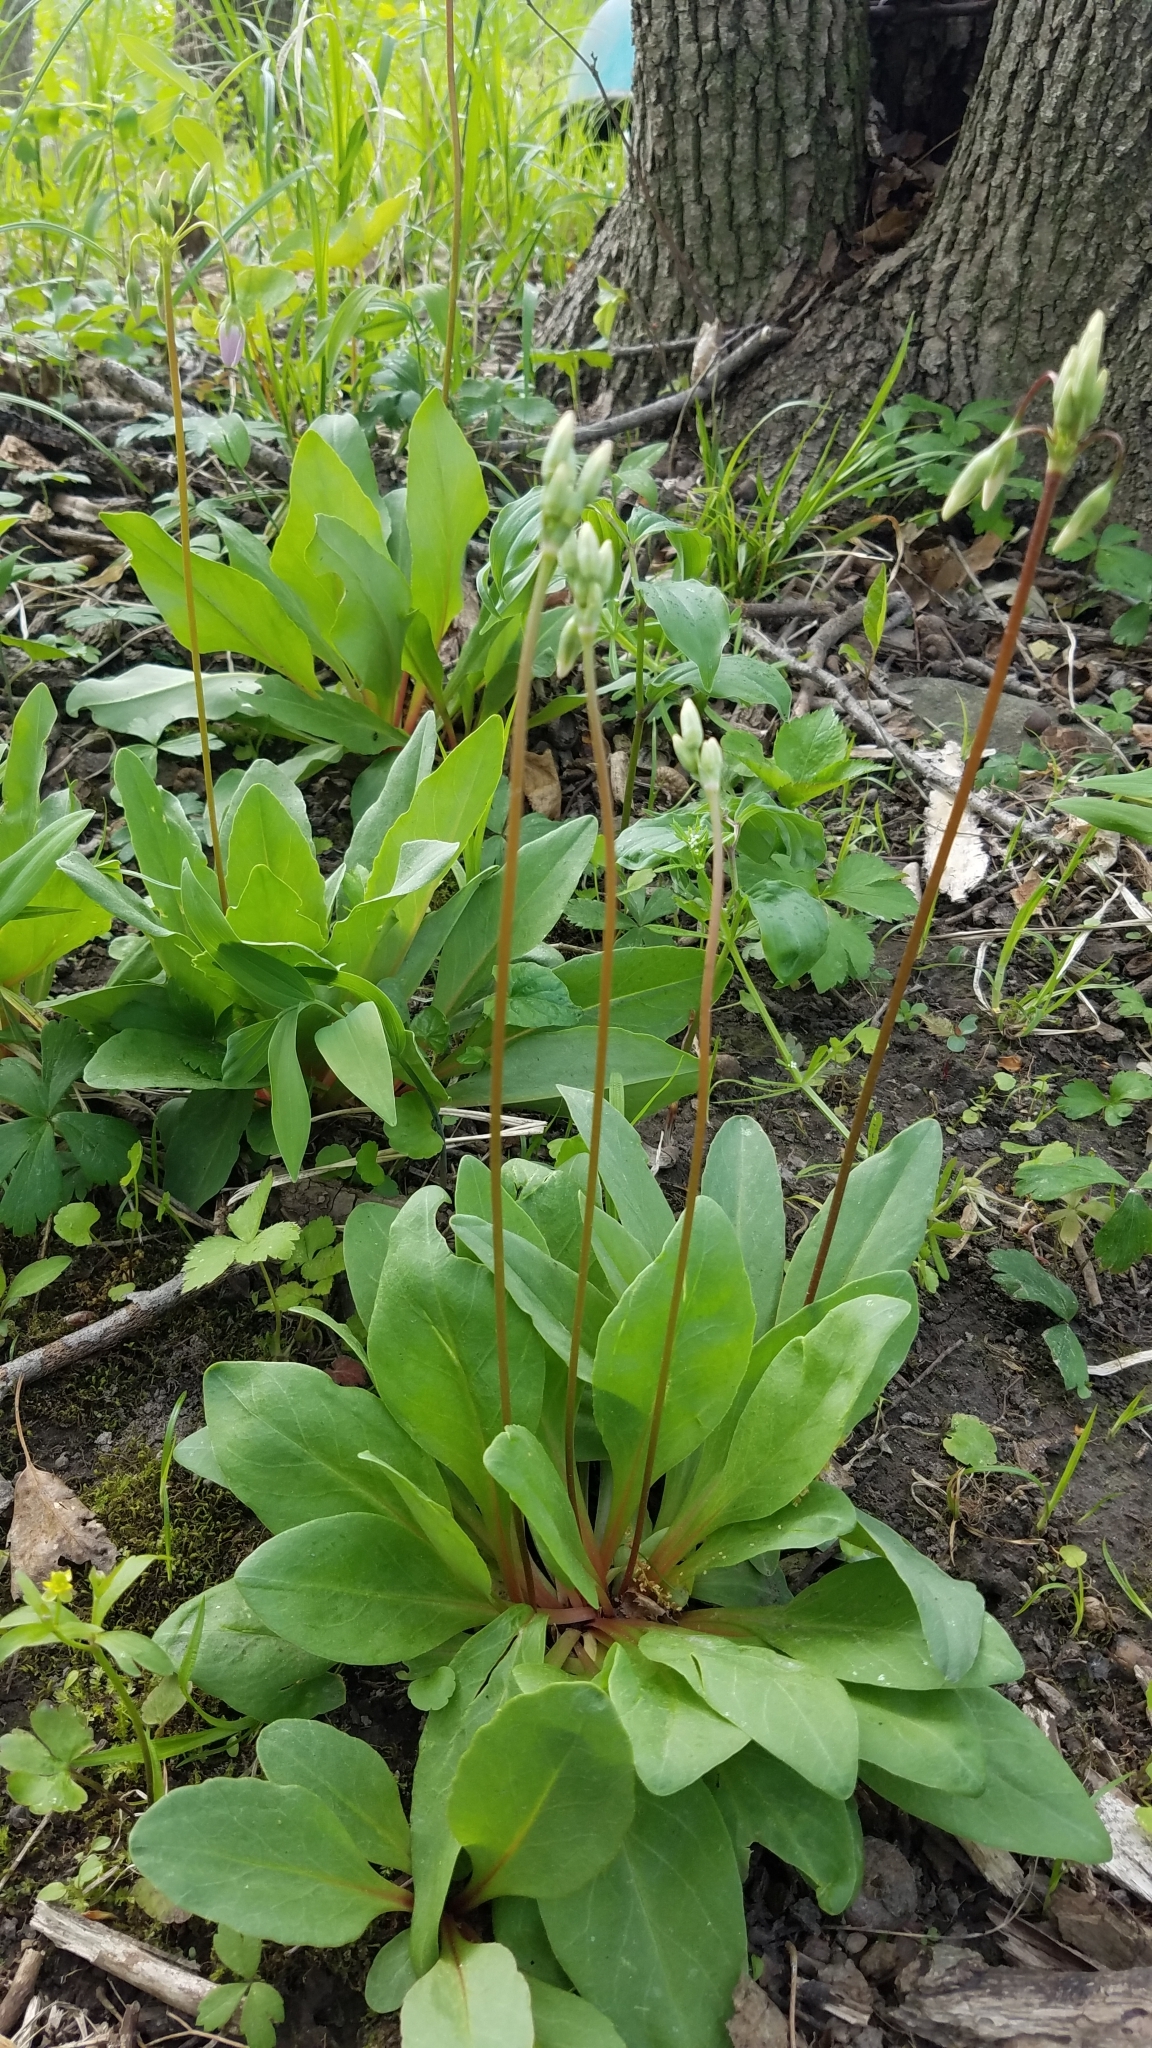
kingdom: Plantae
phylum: Tracheophyta
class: Magnoliopsida
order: Ericales
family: Primulaceae
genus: Dodecatheon
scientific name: Dodecatheon meadia
